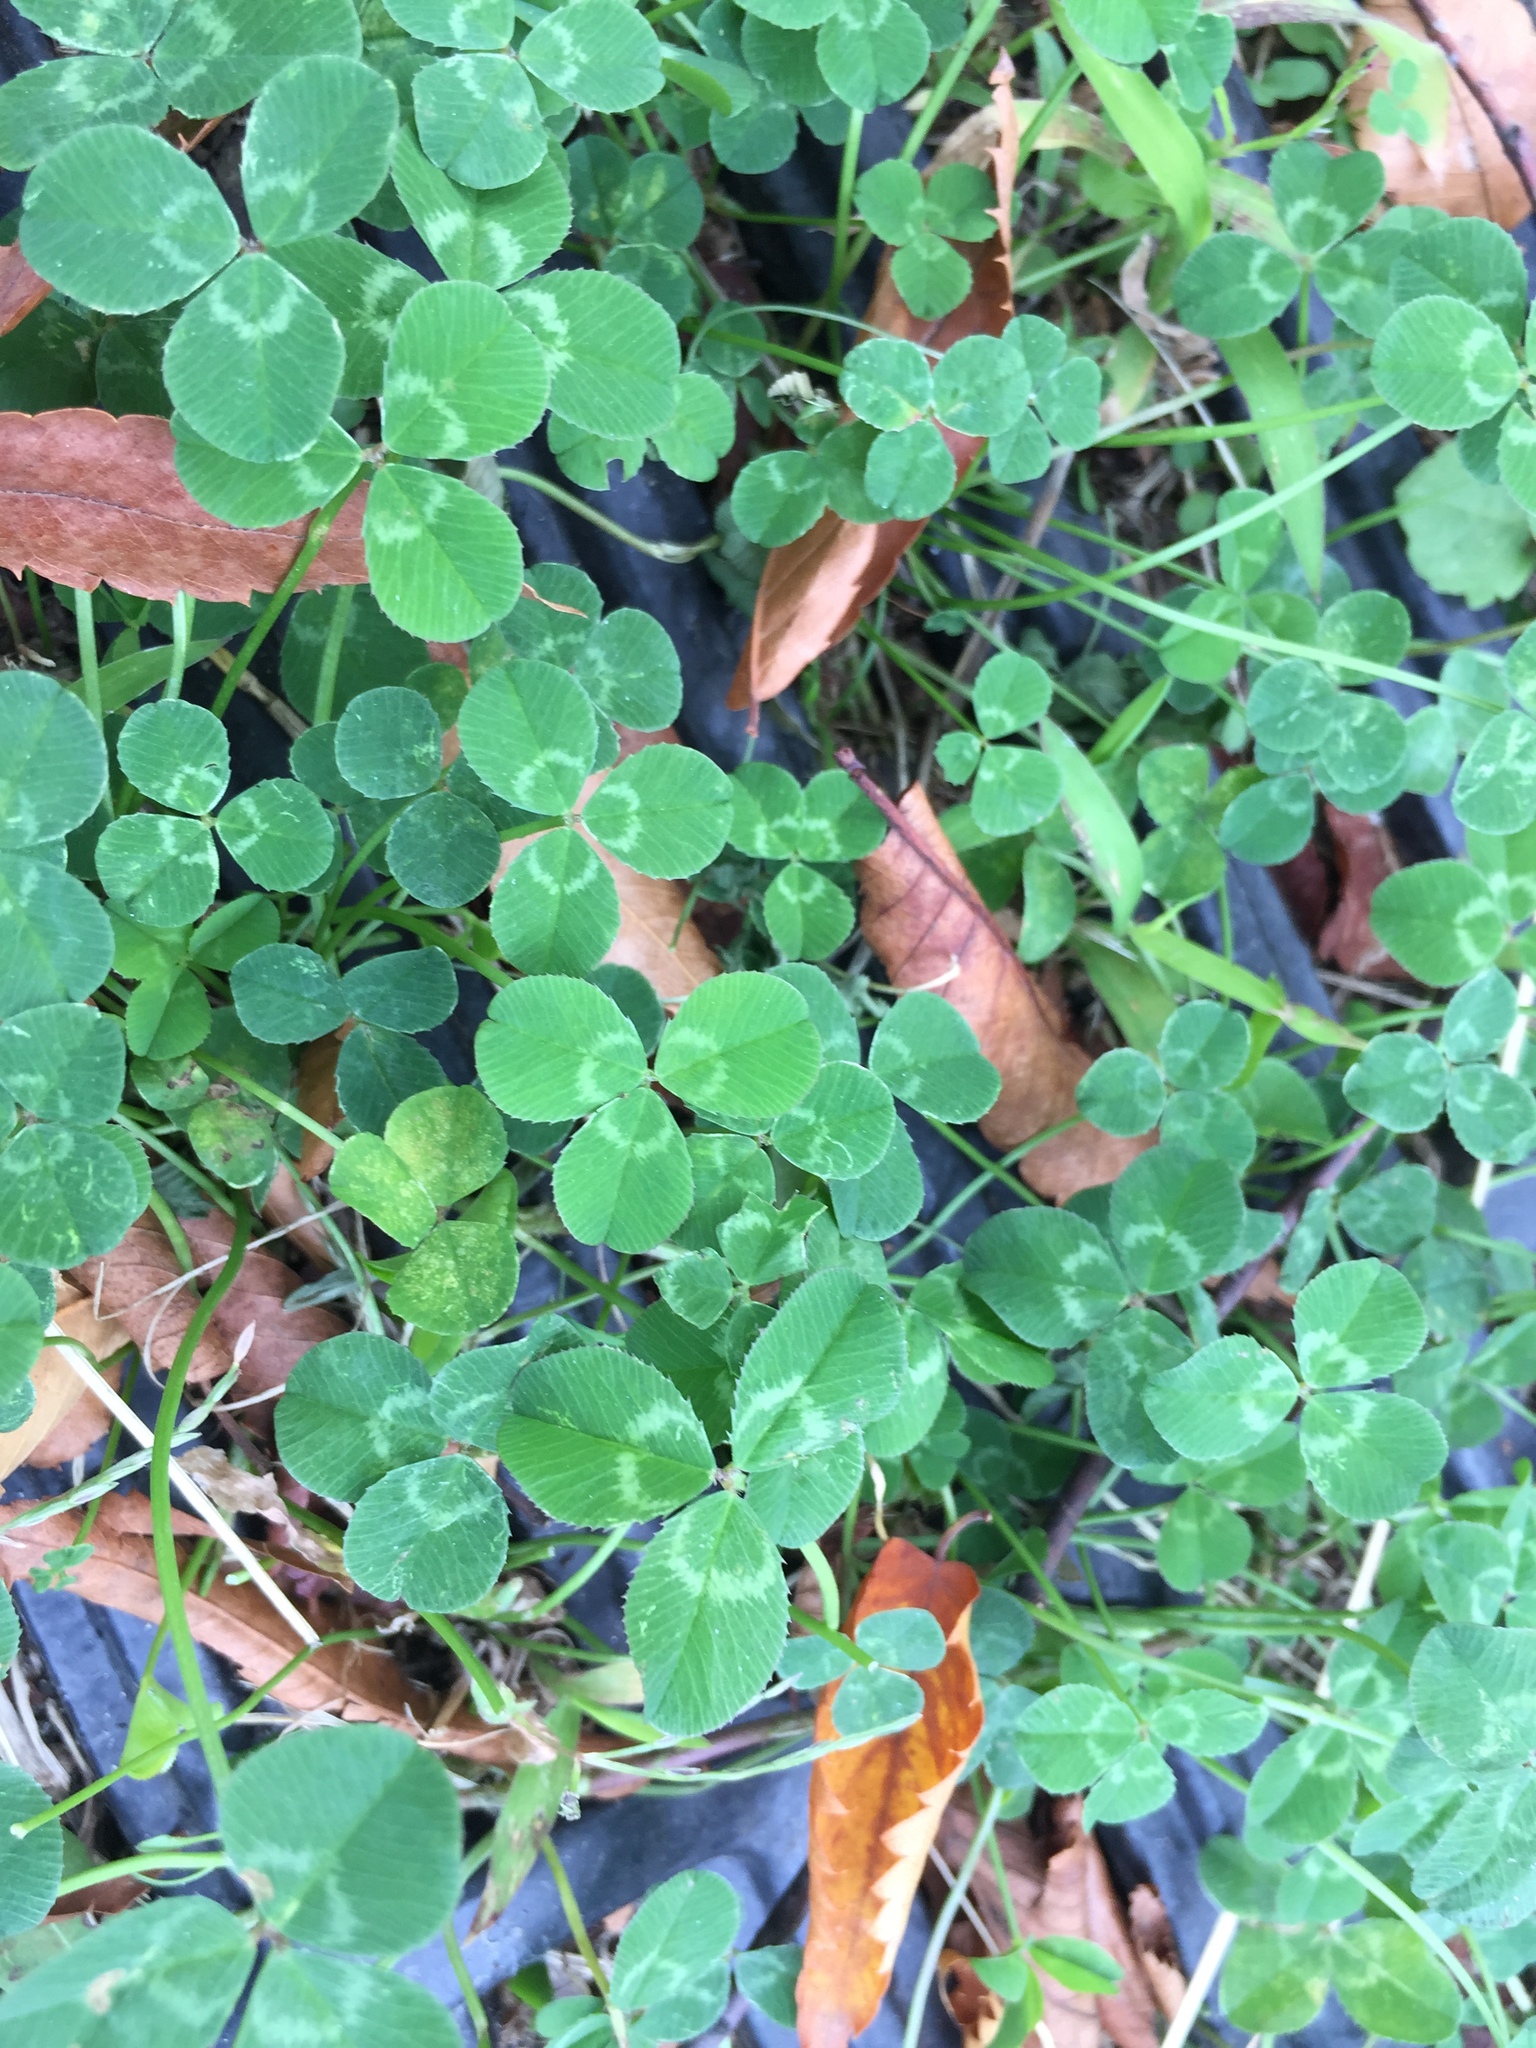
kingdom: Plantae
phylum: Tracheophyta
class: Magnoliopsida
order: Fabales
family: Fabaceae
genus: Trifolium
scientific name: Trifolium repens
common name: White clover
